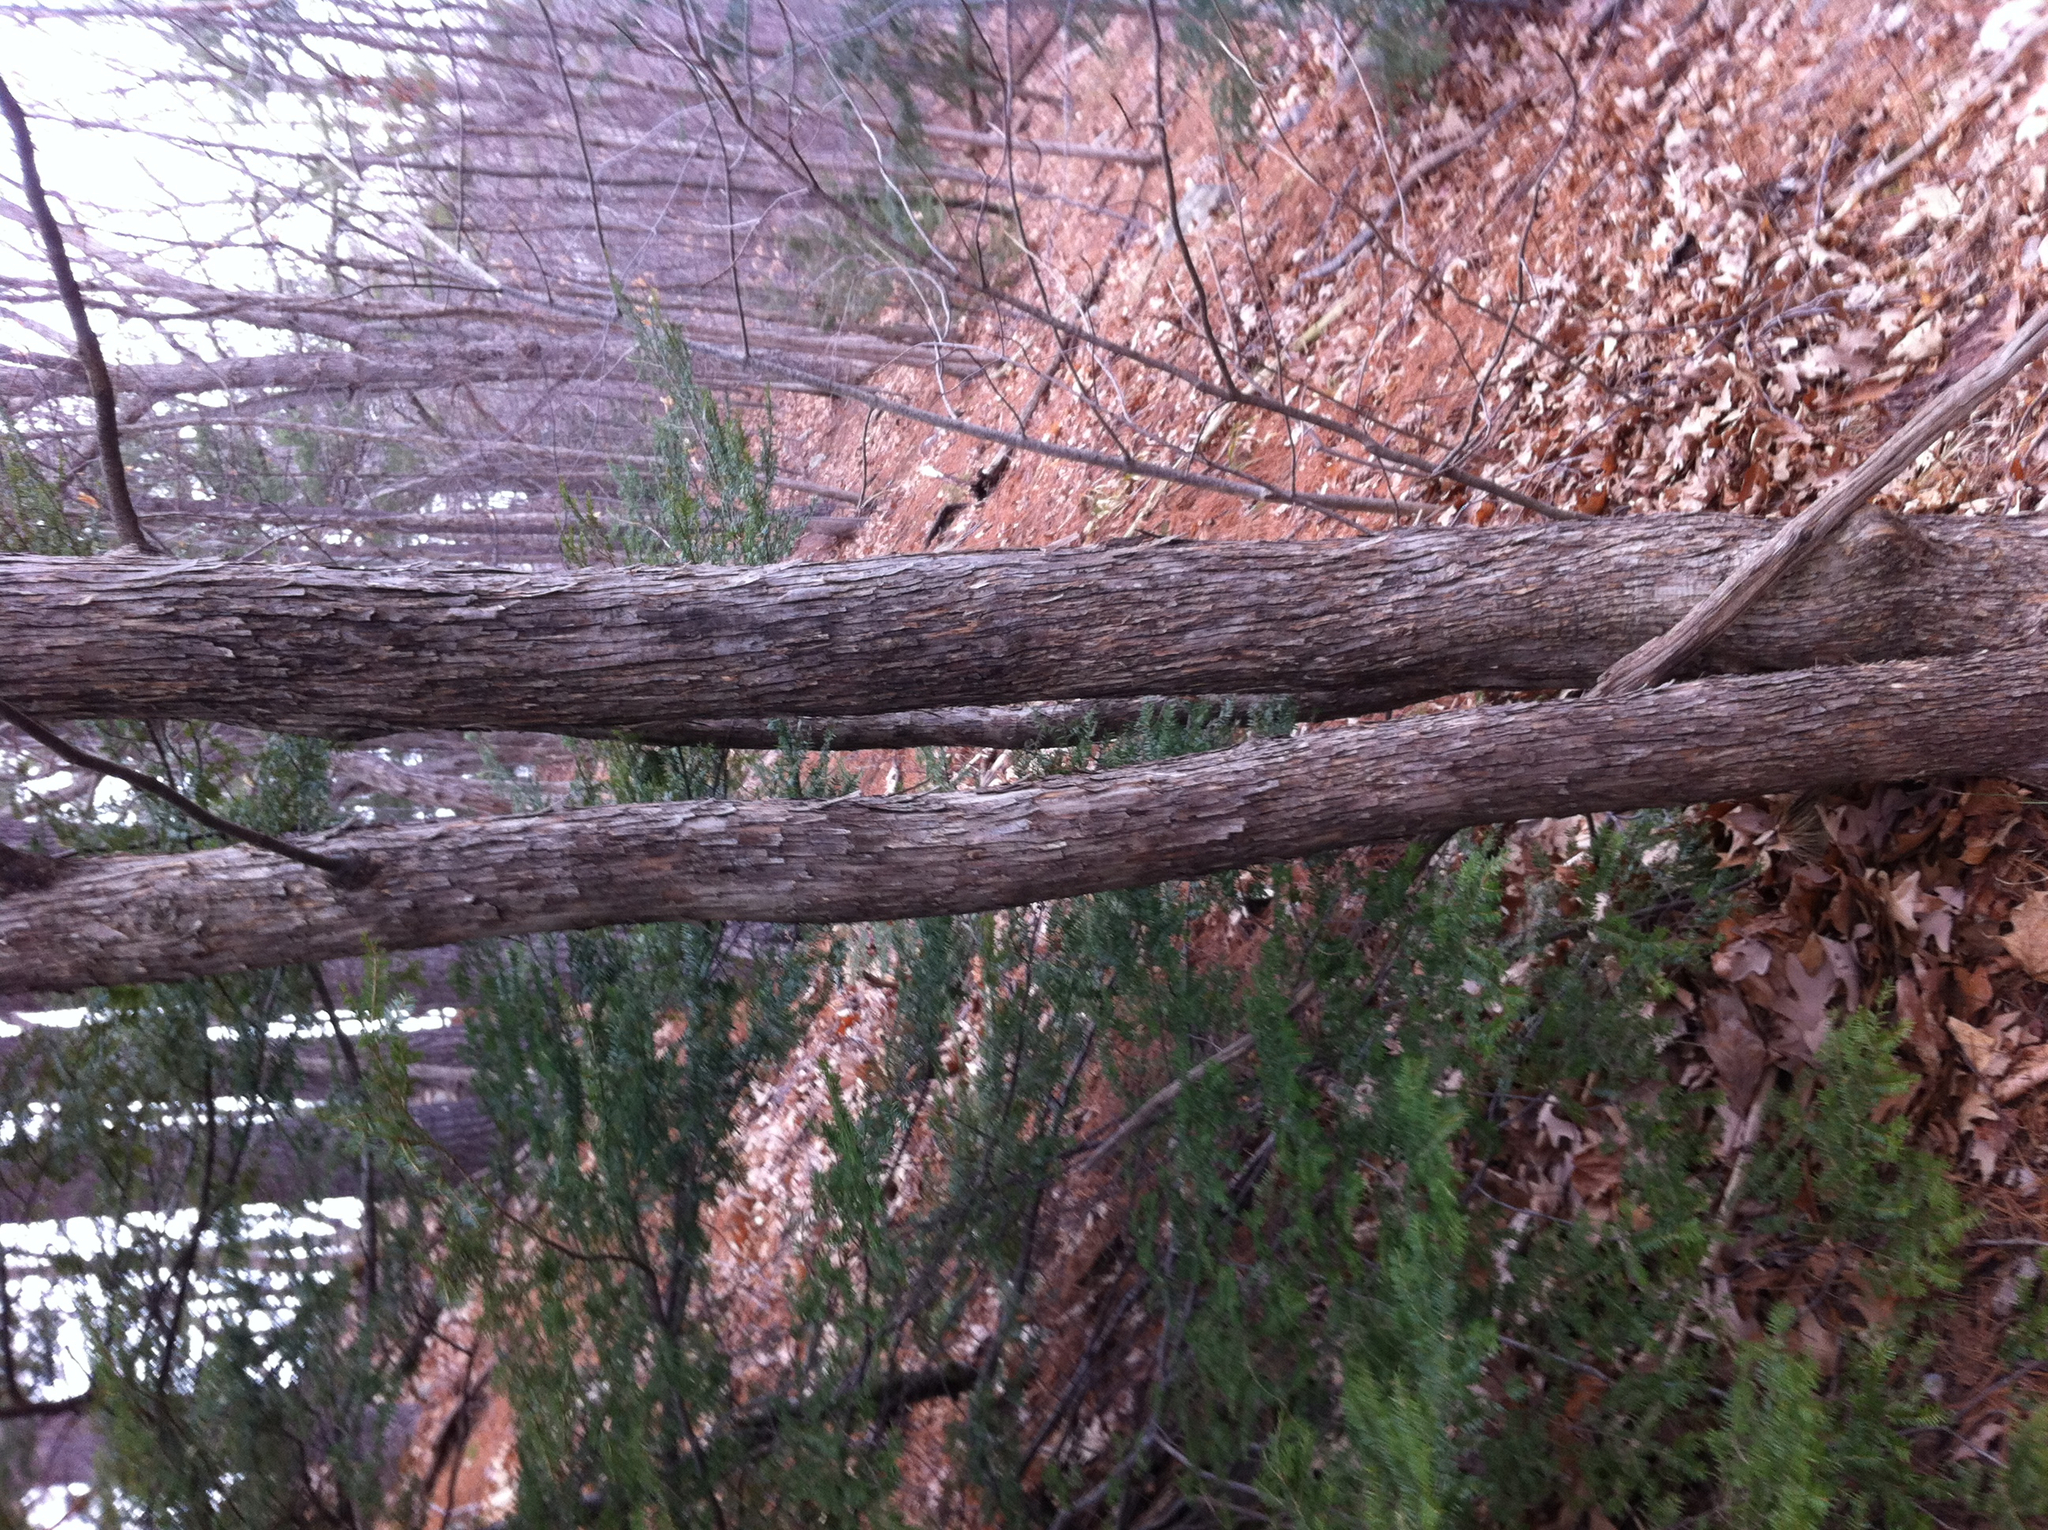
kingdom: Plantae
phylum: Tracheophyta
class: Magnoliopsida
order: Fagales
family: Betulaceae
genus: Ostrya
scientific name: Ostrya virginiana
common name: Ironwood
